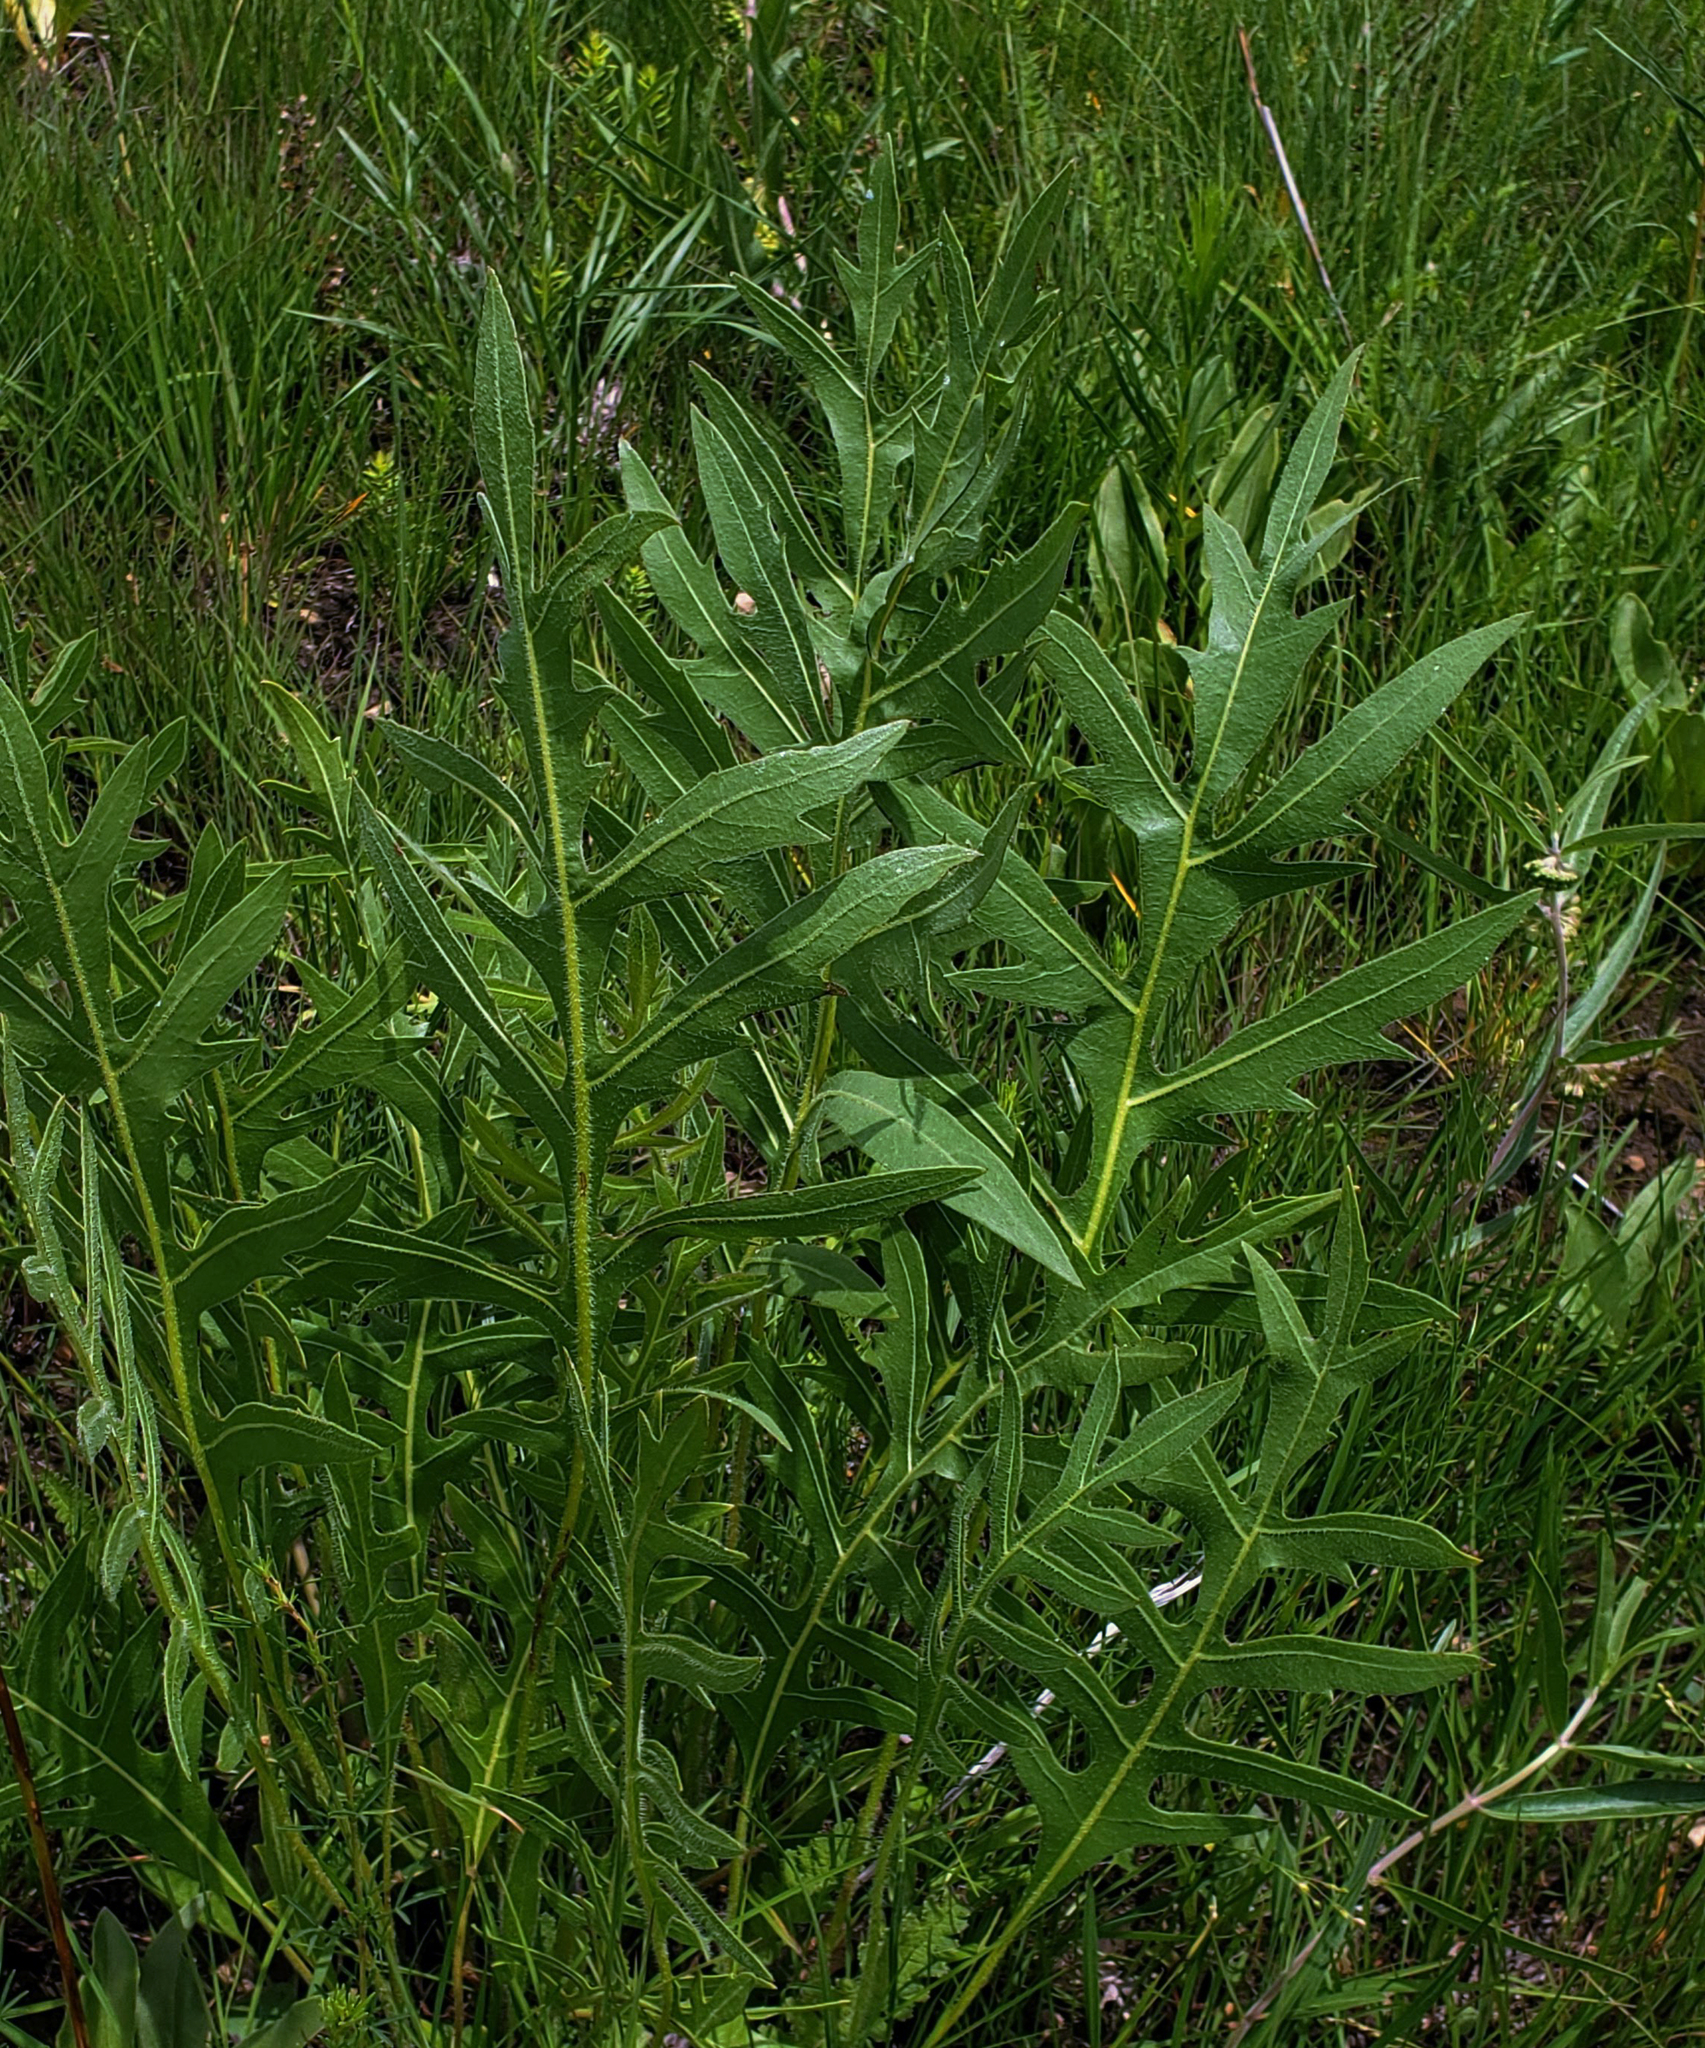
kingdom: Plantae
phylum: Tracheophyta
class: Magnoliopsida
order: Asterales
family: Asteraceae
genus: Silphium
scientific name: Silphium laciniatum
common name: Polarplant
